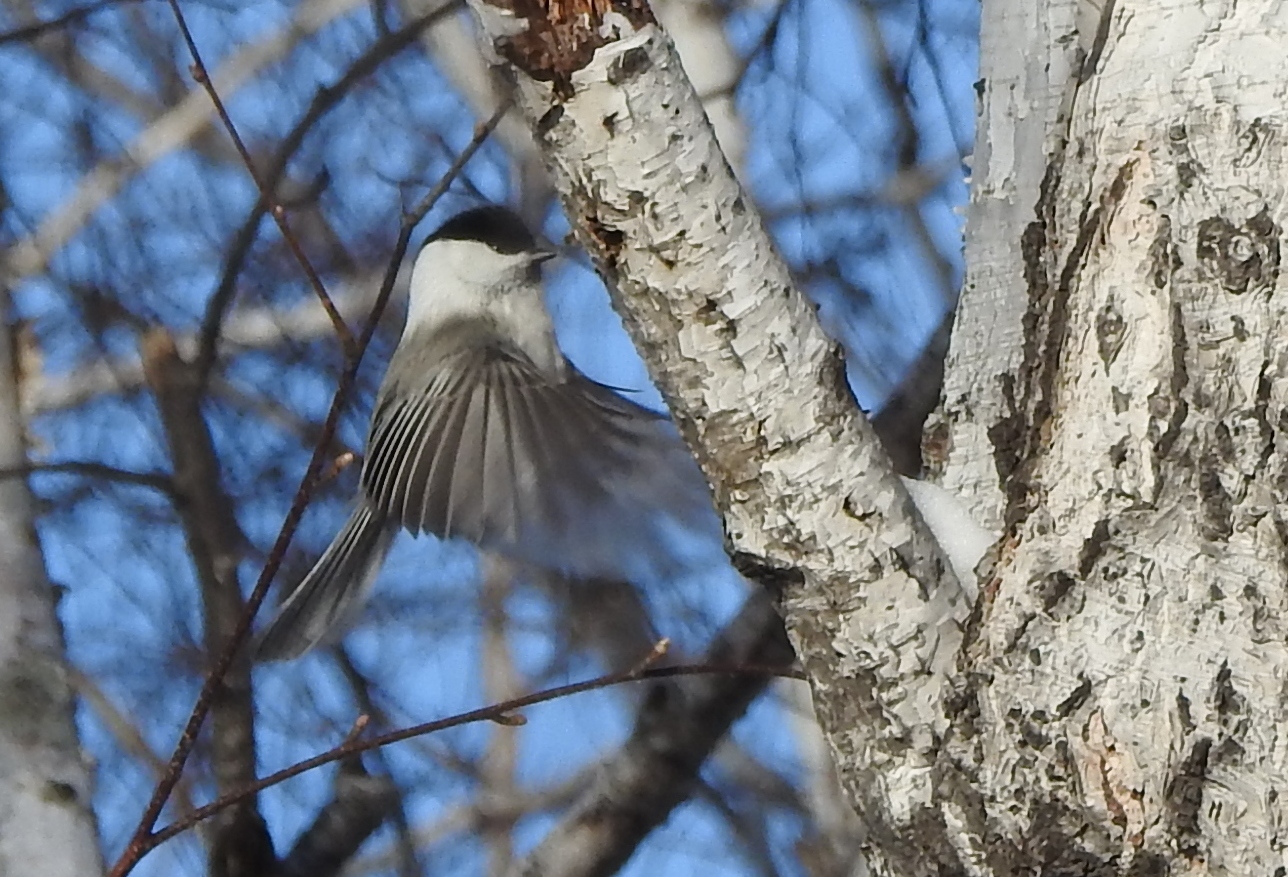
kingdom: Animalia
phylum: Chordata
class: Aves
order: Passeriformes
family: Paridae
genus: Poecile
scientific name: Poecile montanus
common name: Willow tit
